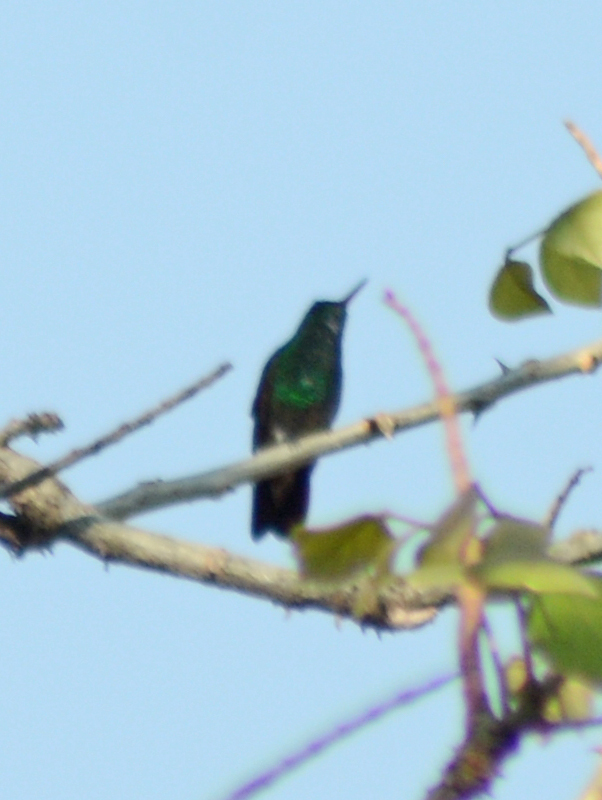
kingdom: Animalia
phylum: Chordata
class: Aves
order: Apodiformes
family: Trochilidae
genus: Saucerottia
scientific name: Saucerottia beryllina
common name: Berylline hummingbird
